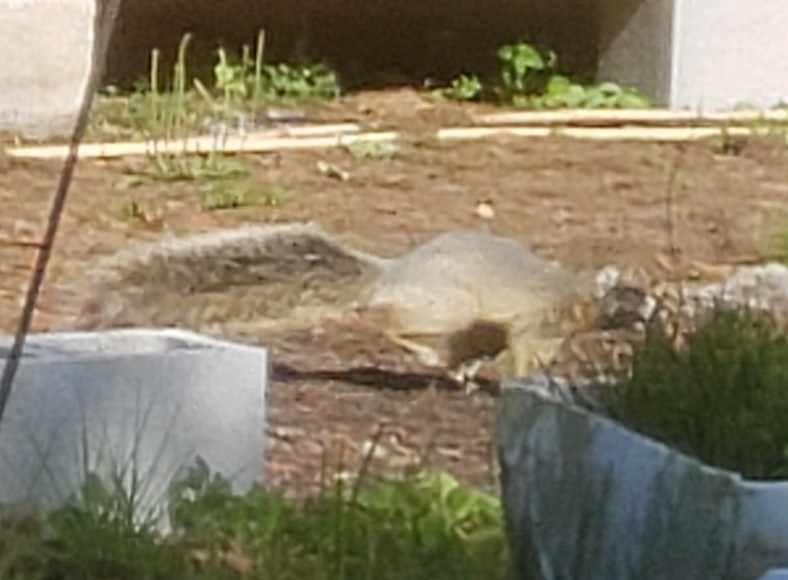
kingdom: Animalia
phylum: Chordata
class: Mammalia
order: Rodentia
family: Sciuridae
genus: Sciurus
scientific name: Sciurus niger
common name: Fox squirrel
